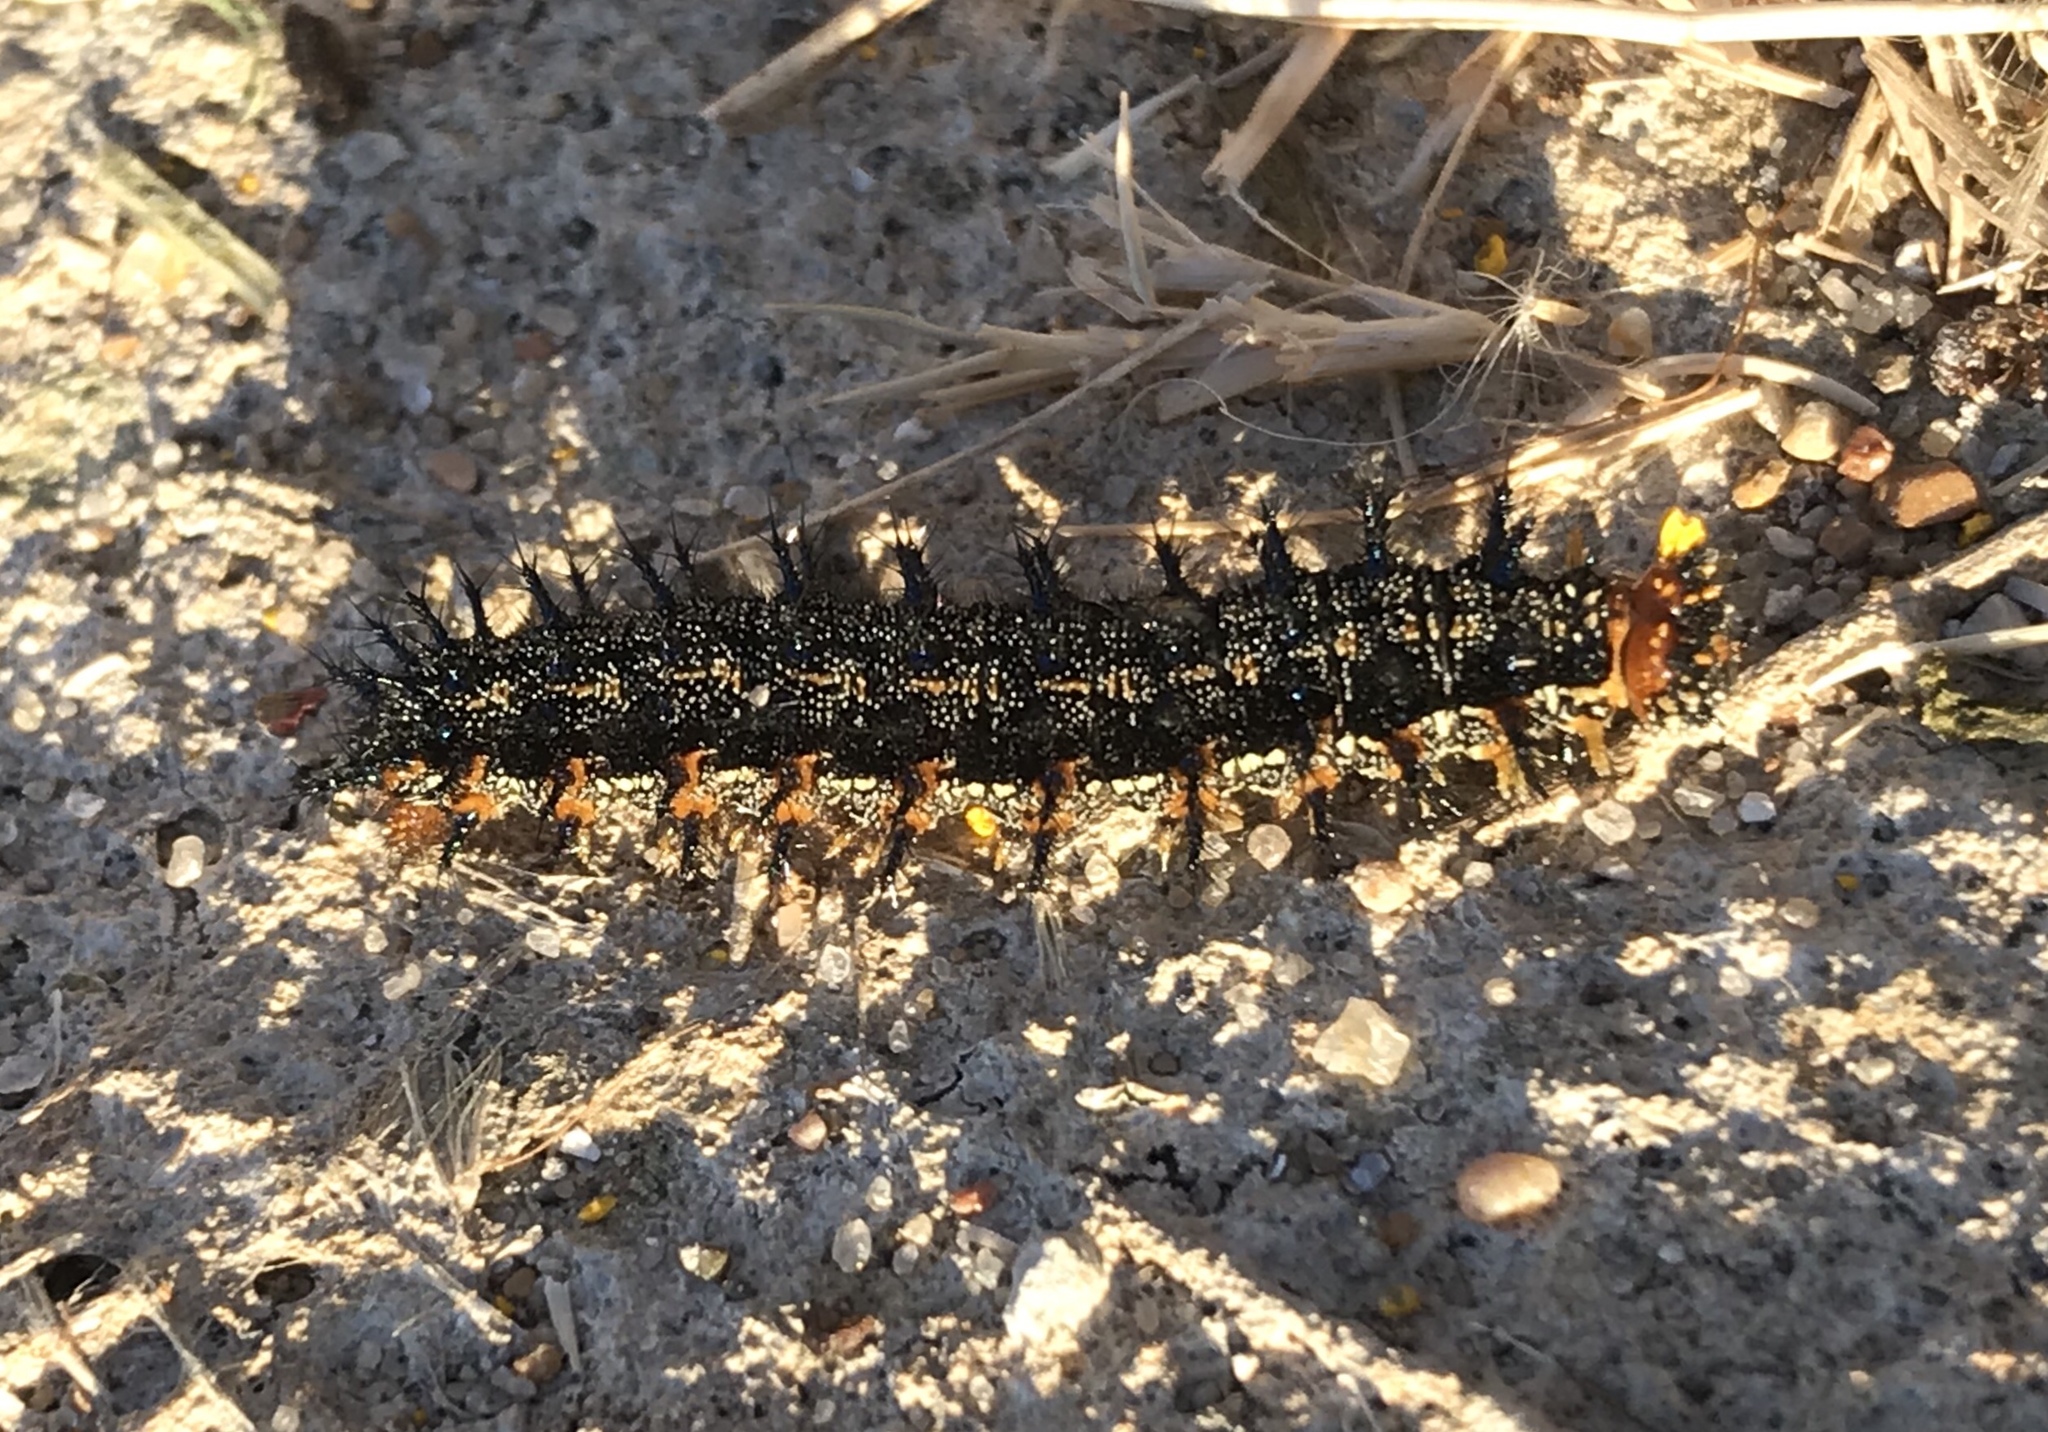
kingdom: Animalia
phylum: Arthropoda
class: Insecta
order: Lepidoptera
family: Nymphalidae
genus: Junonia
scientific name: Junonia coenia
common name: Common buckeye
